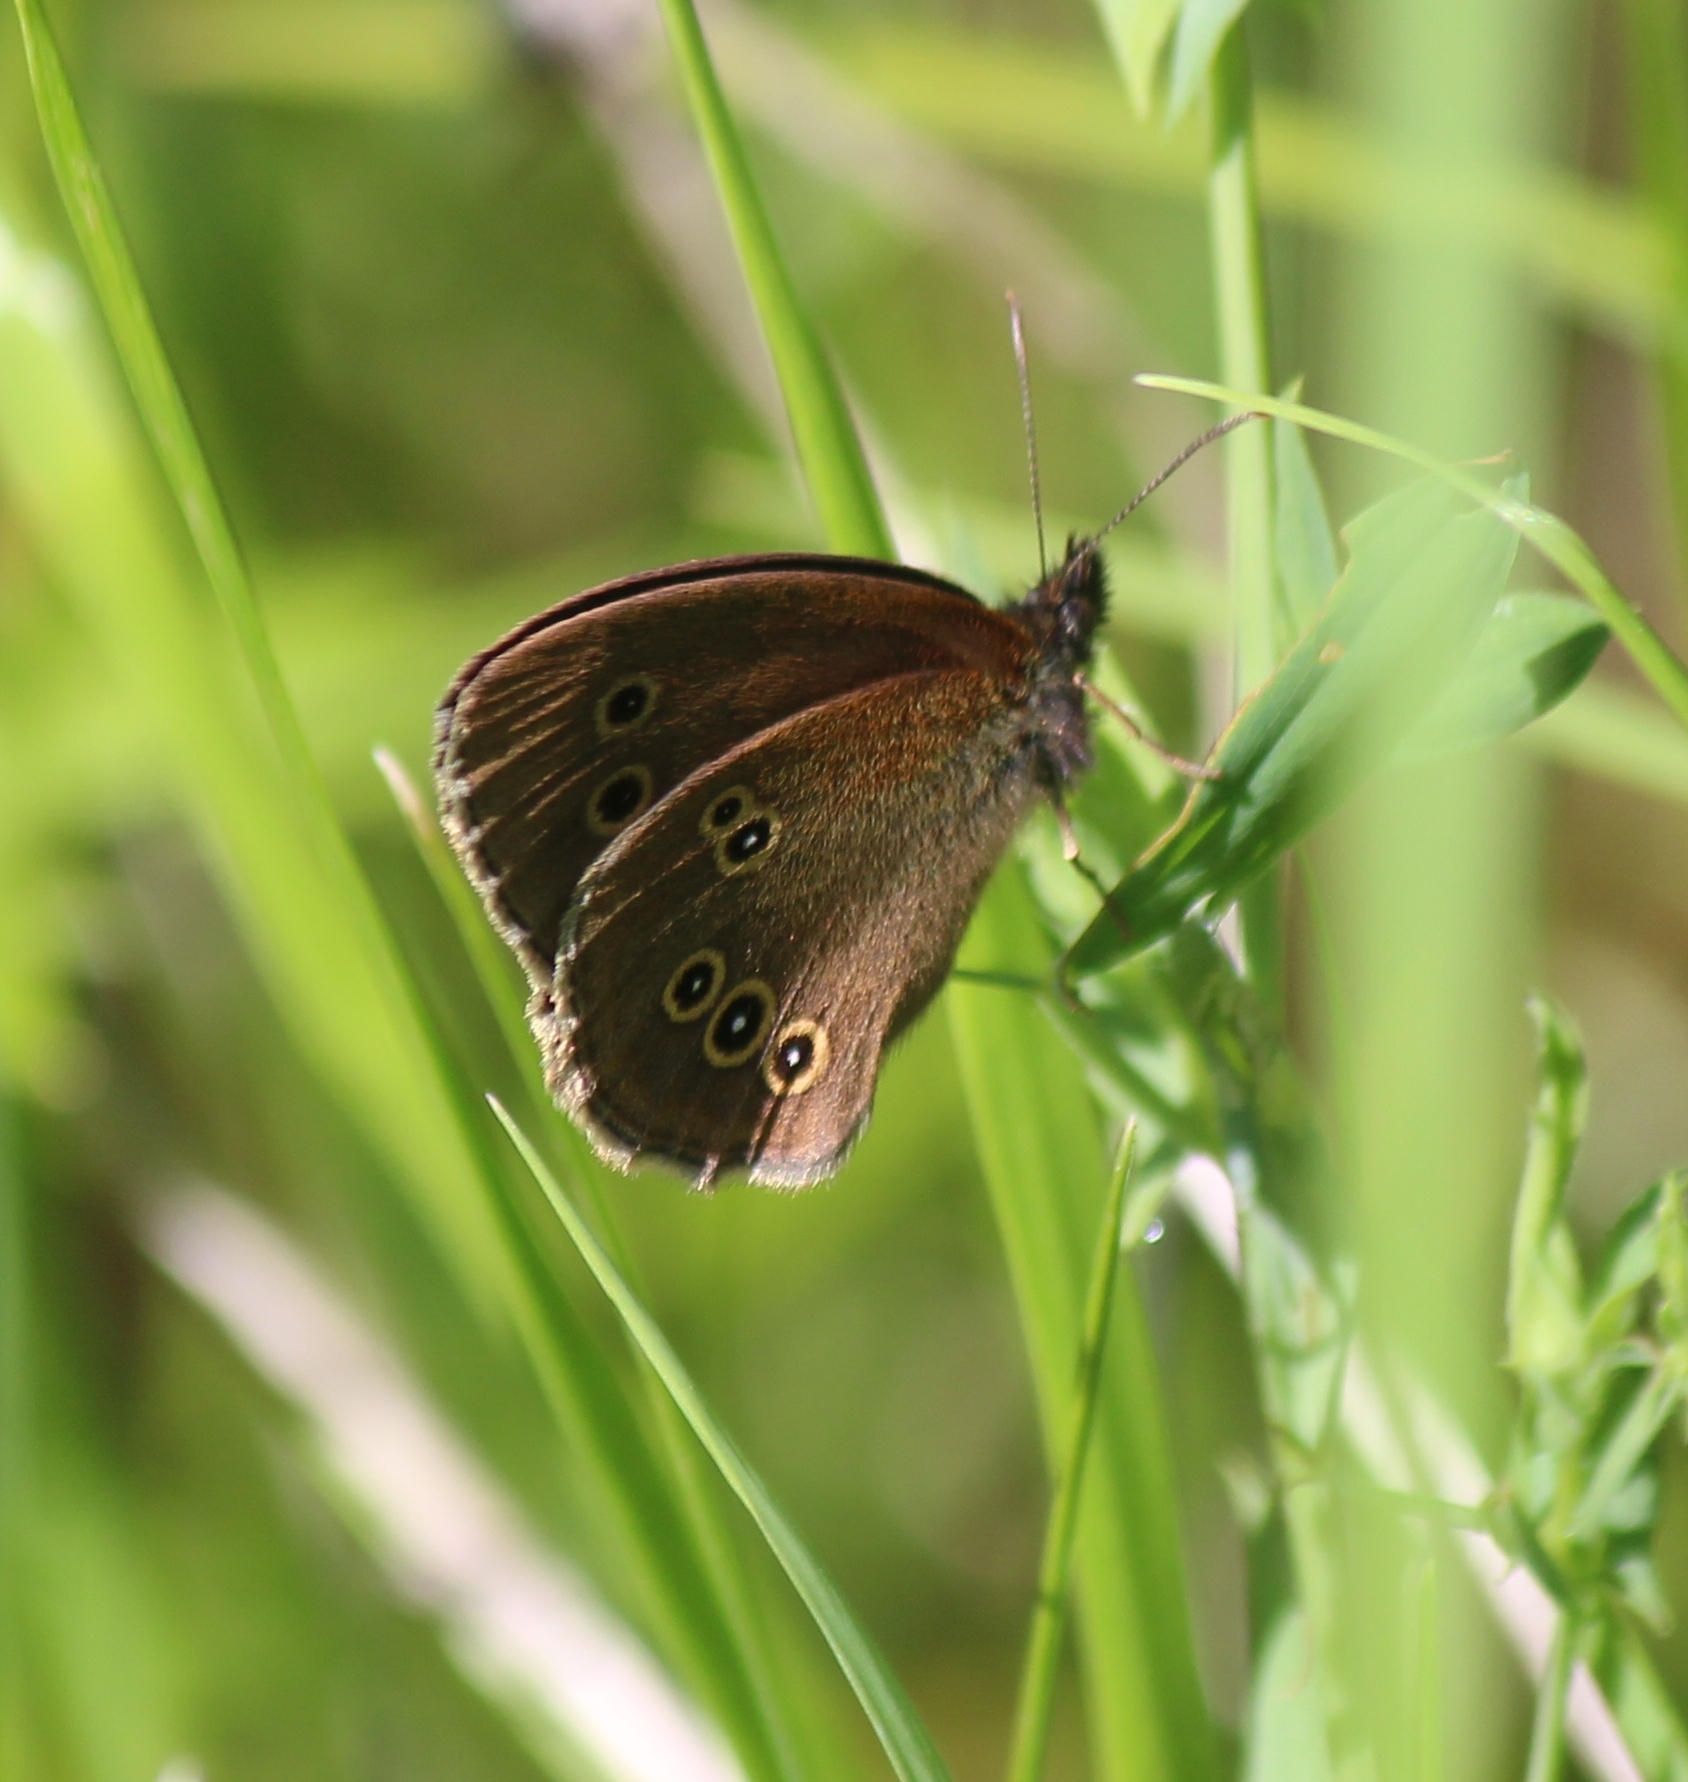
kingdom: Animalia
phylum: Arthropoda
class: Insecta
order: Lepidoptera
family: Nymphalidae
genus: Aphantopus
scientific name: Aphantopus hyperantus
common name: Ringlet
